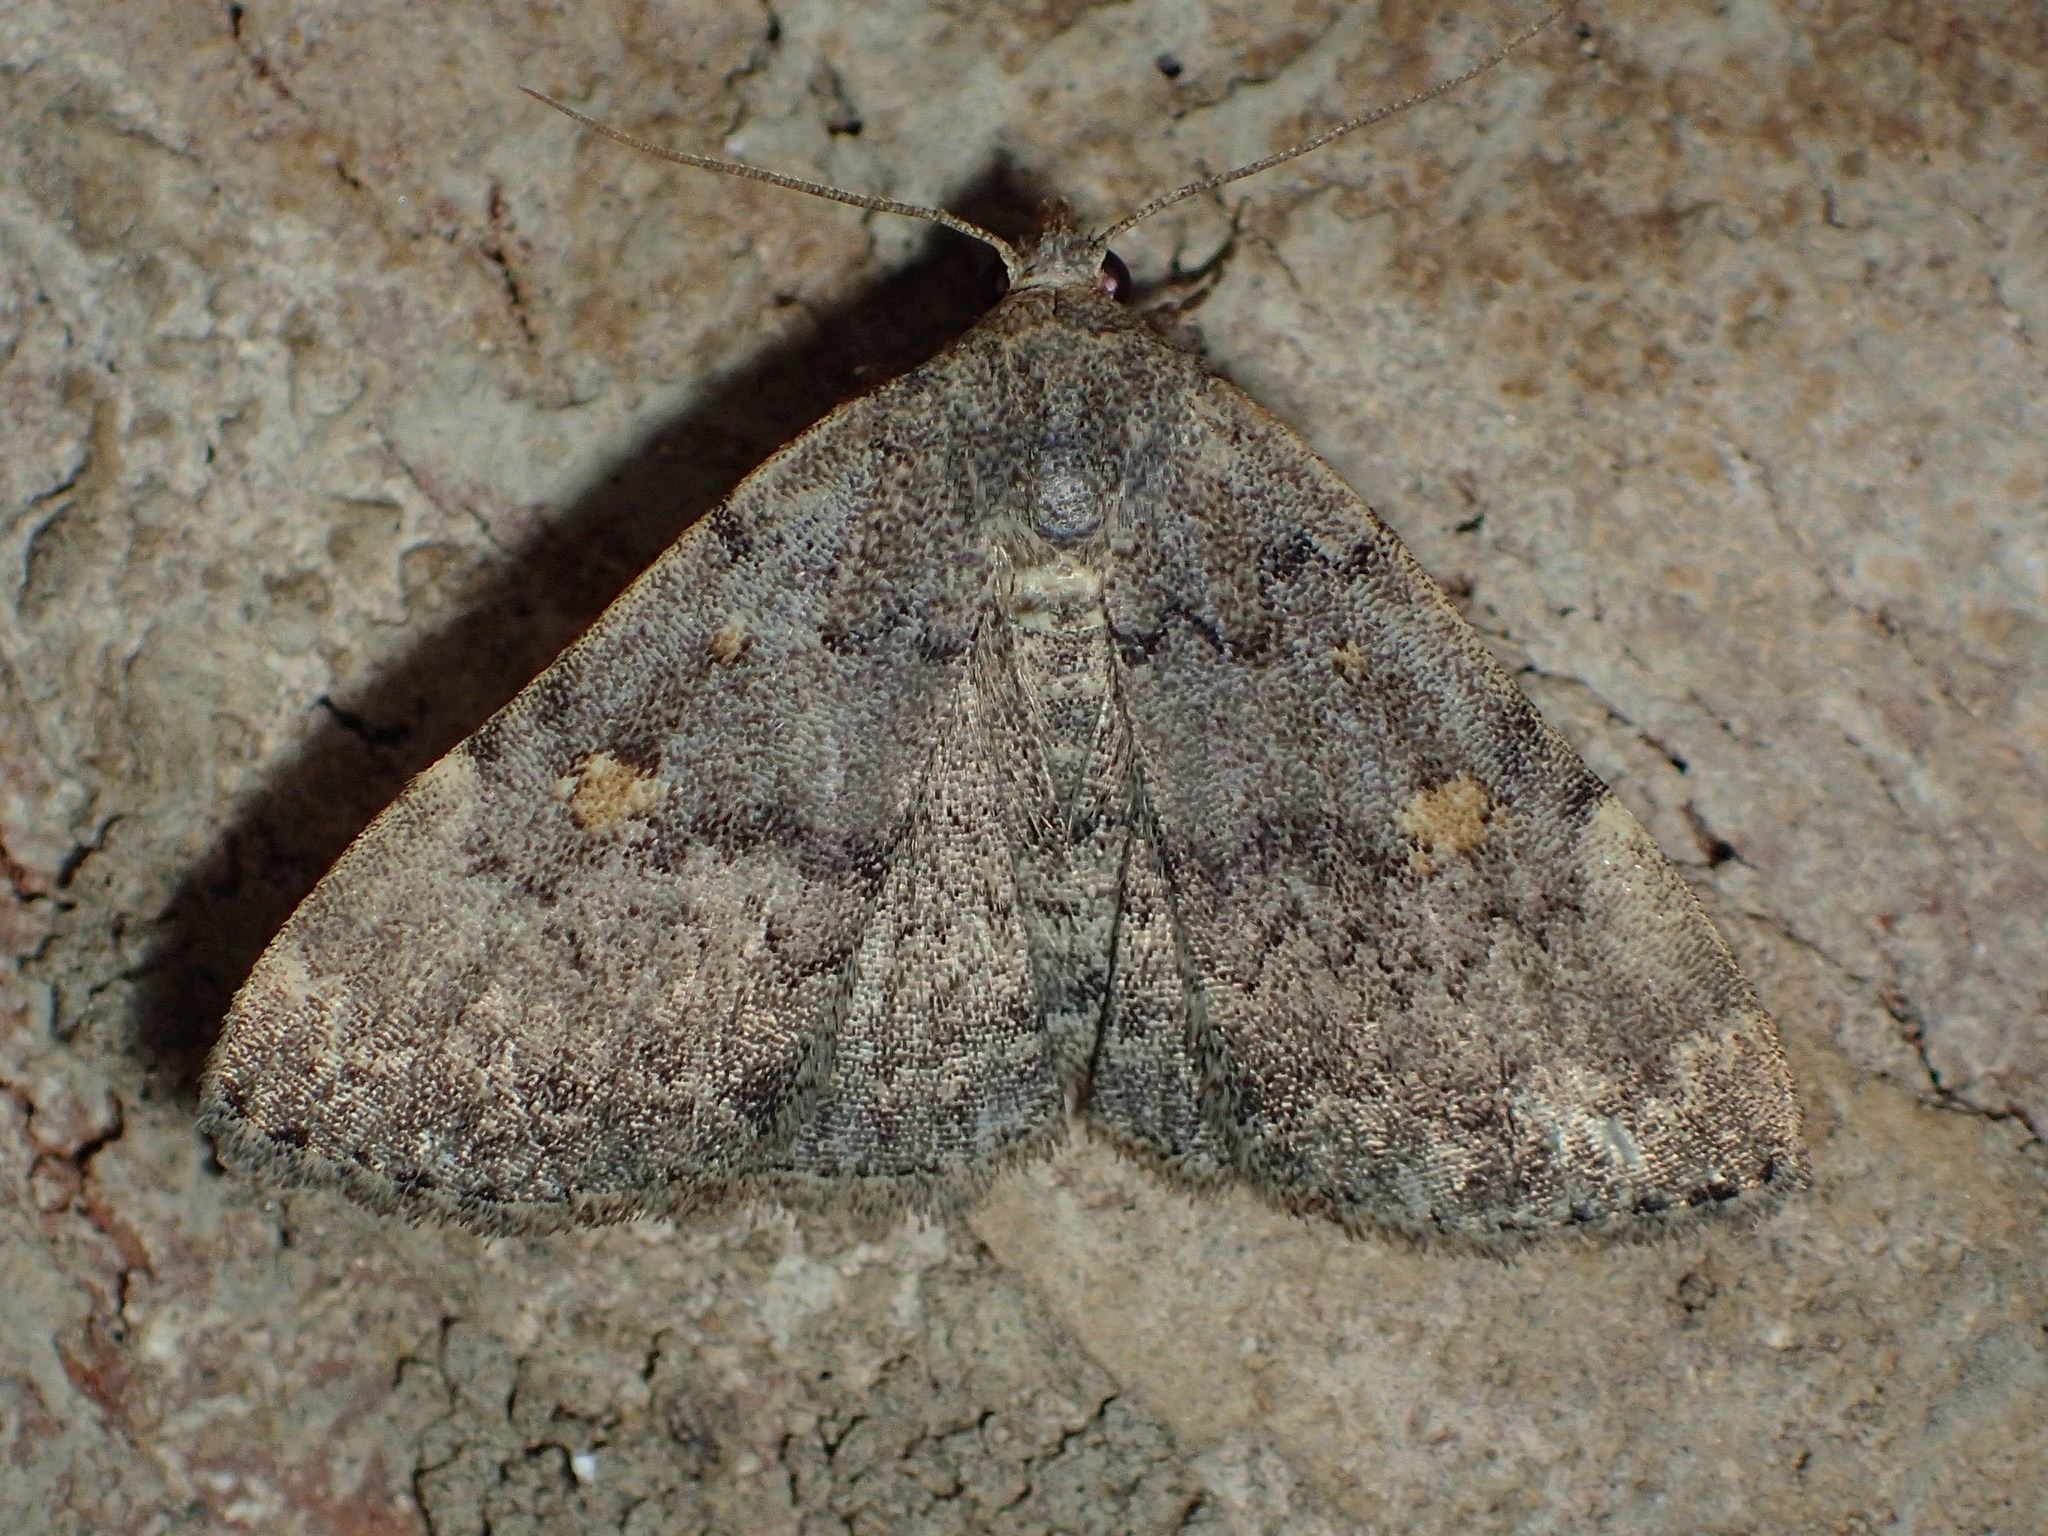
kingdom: Animalia
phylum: Arthropoda
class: Insecta
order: Lepidoptera
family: Erebidae
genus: Idia
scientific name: Idia aemula
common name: Common idia moth
